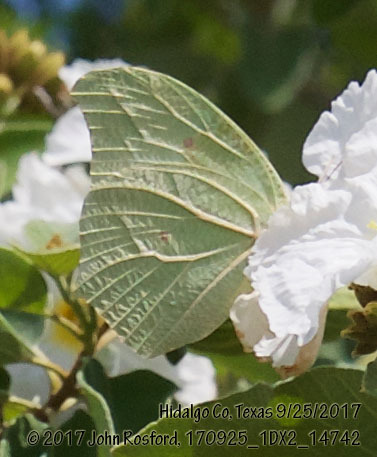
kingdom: Animalia
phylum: Arthropoda
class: Insecta
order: Lepidoptera
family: Pieridae
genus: Anteos
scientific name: Anteos clorinde
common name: White angled sulphur
